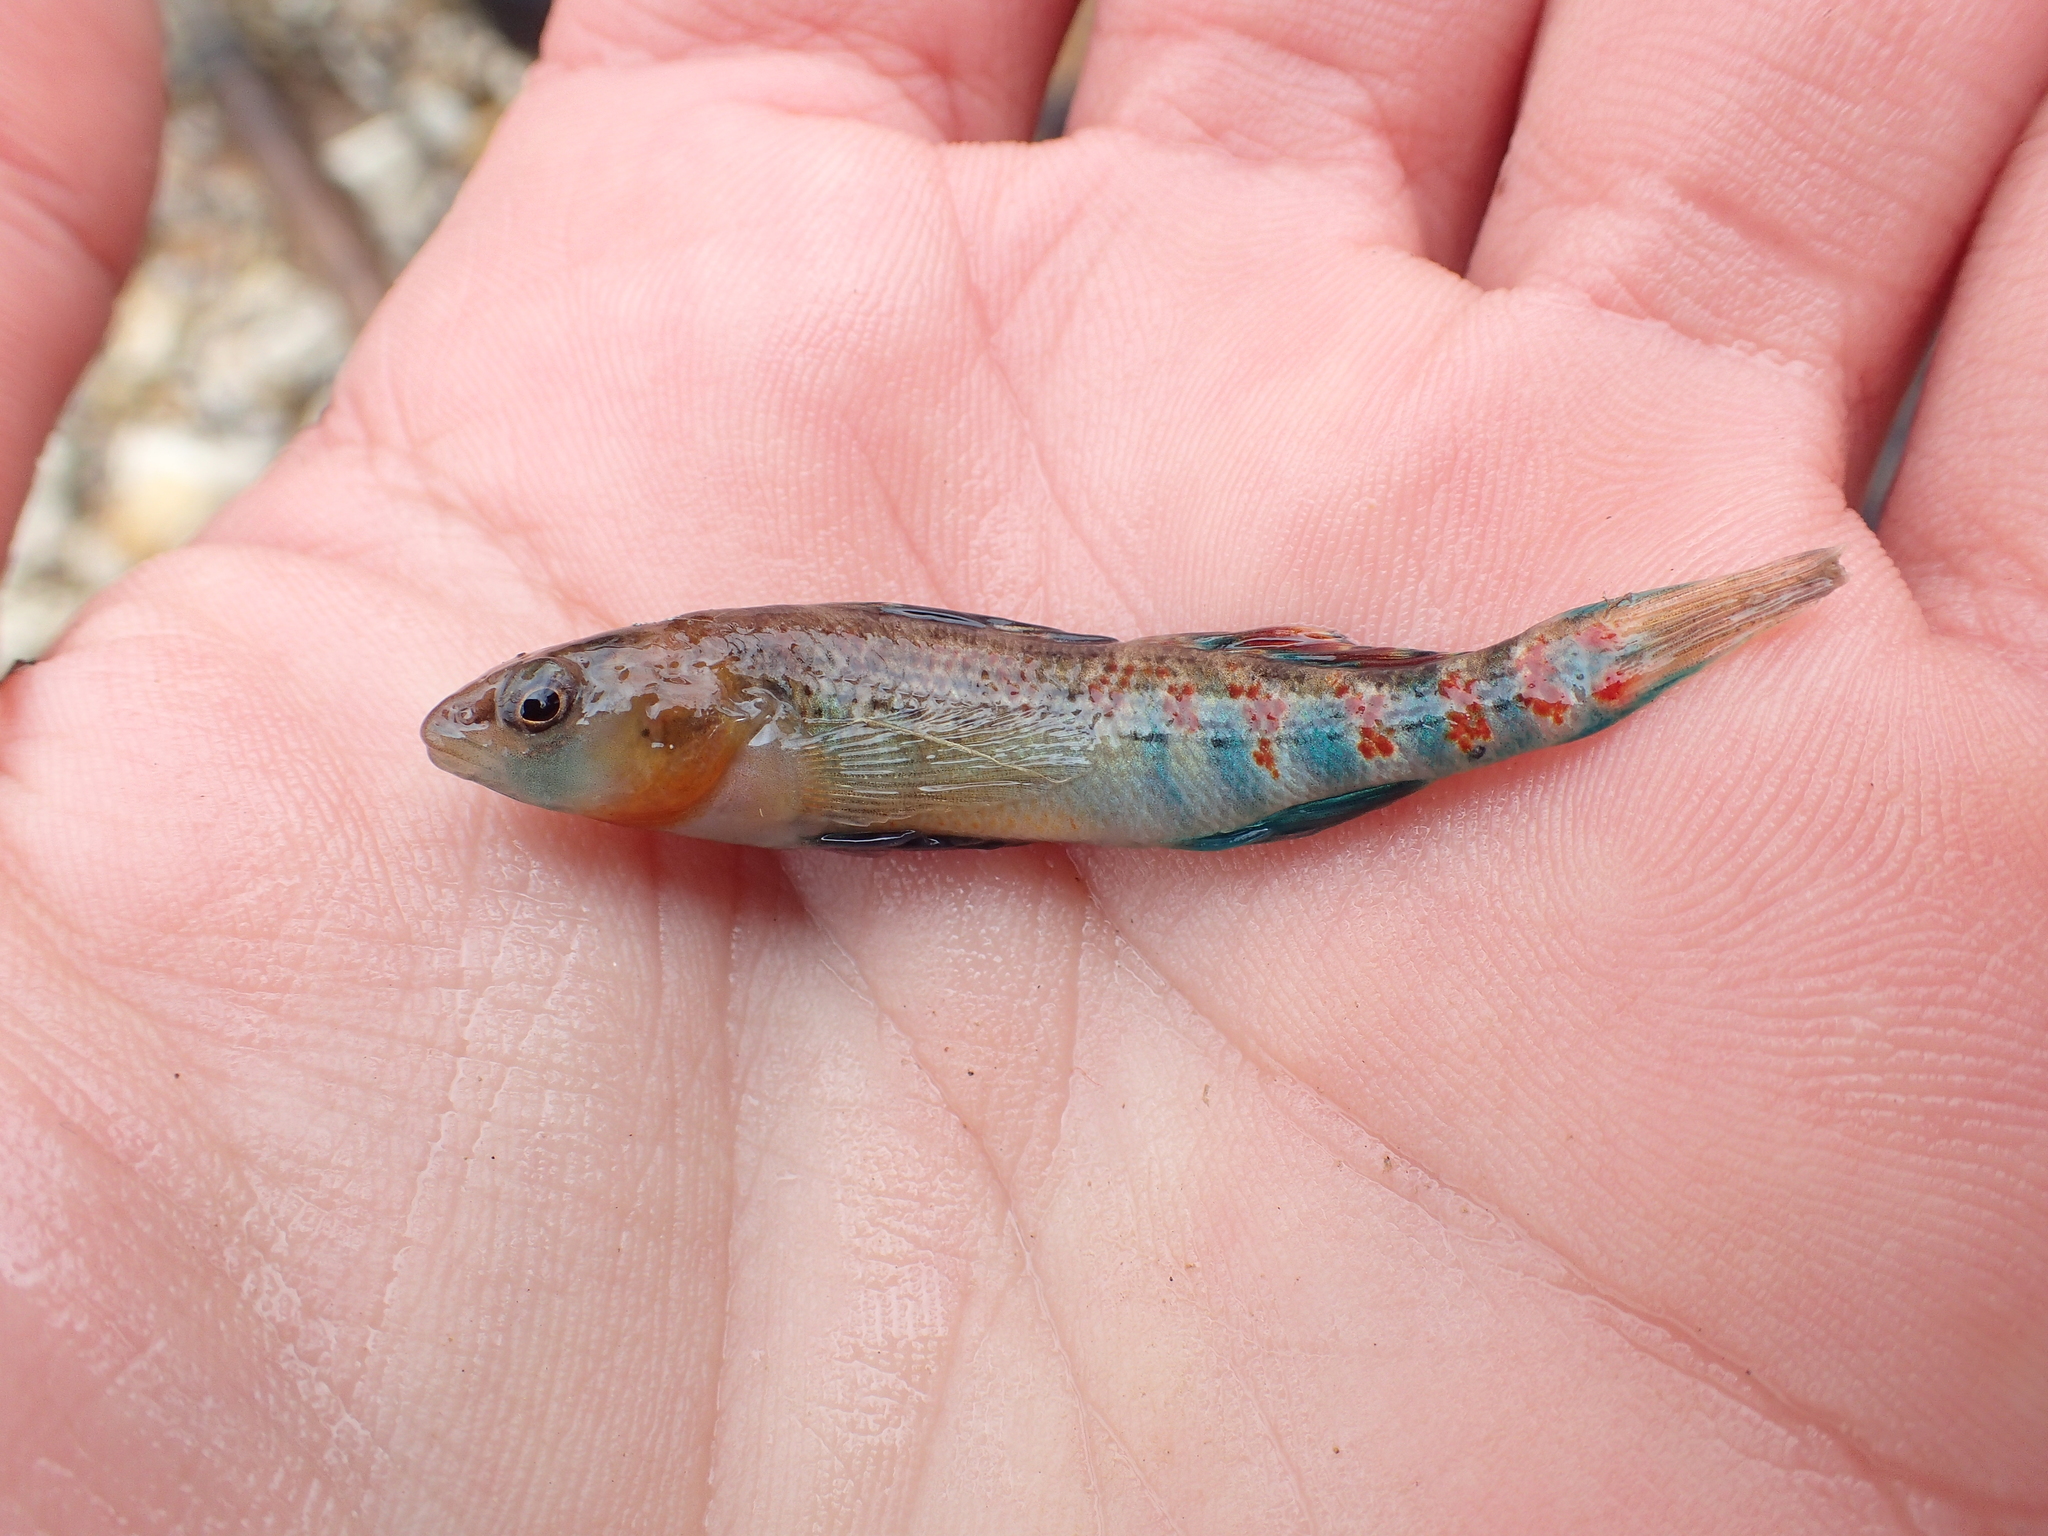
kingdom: Animalia
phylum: Chordata
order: Perciformes
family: Percidae
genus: Etheostoma
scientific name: Etheostoma spectabile
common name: Orangethroat darter
